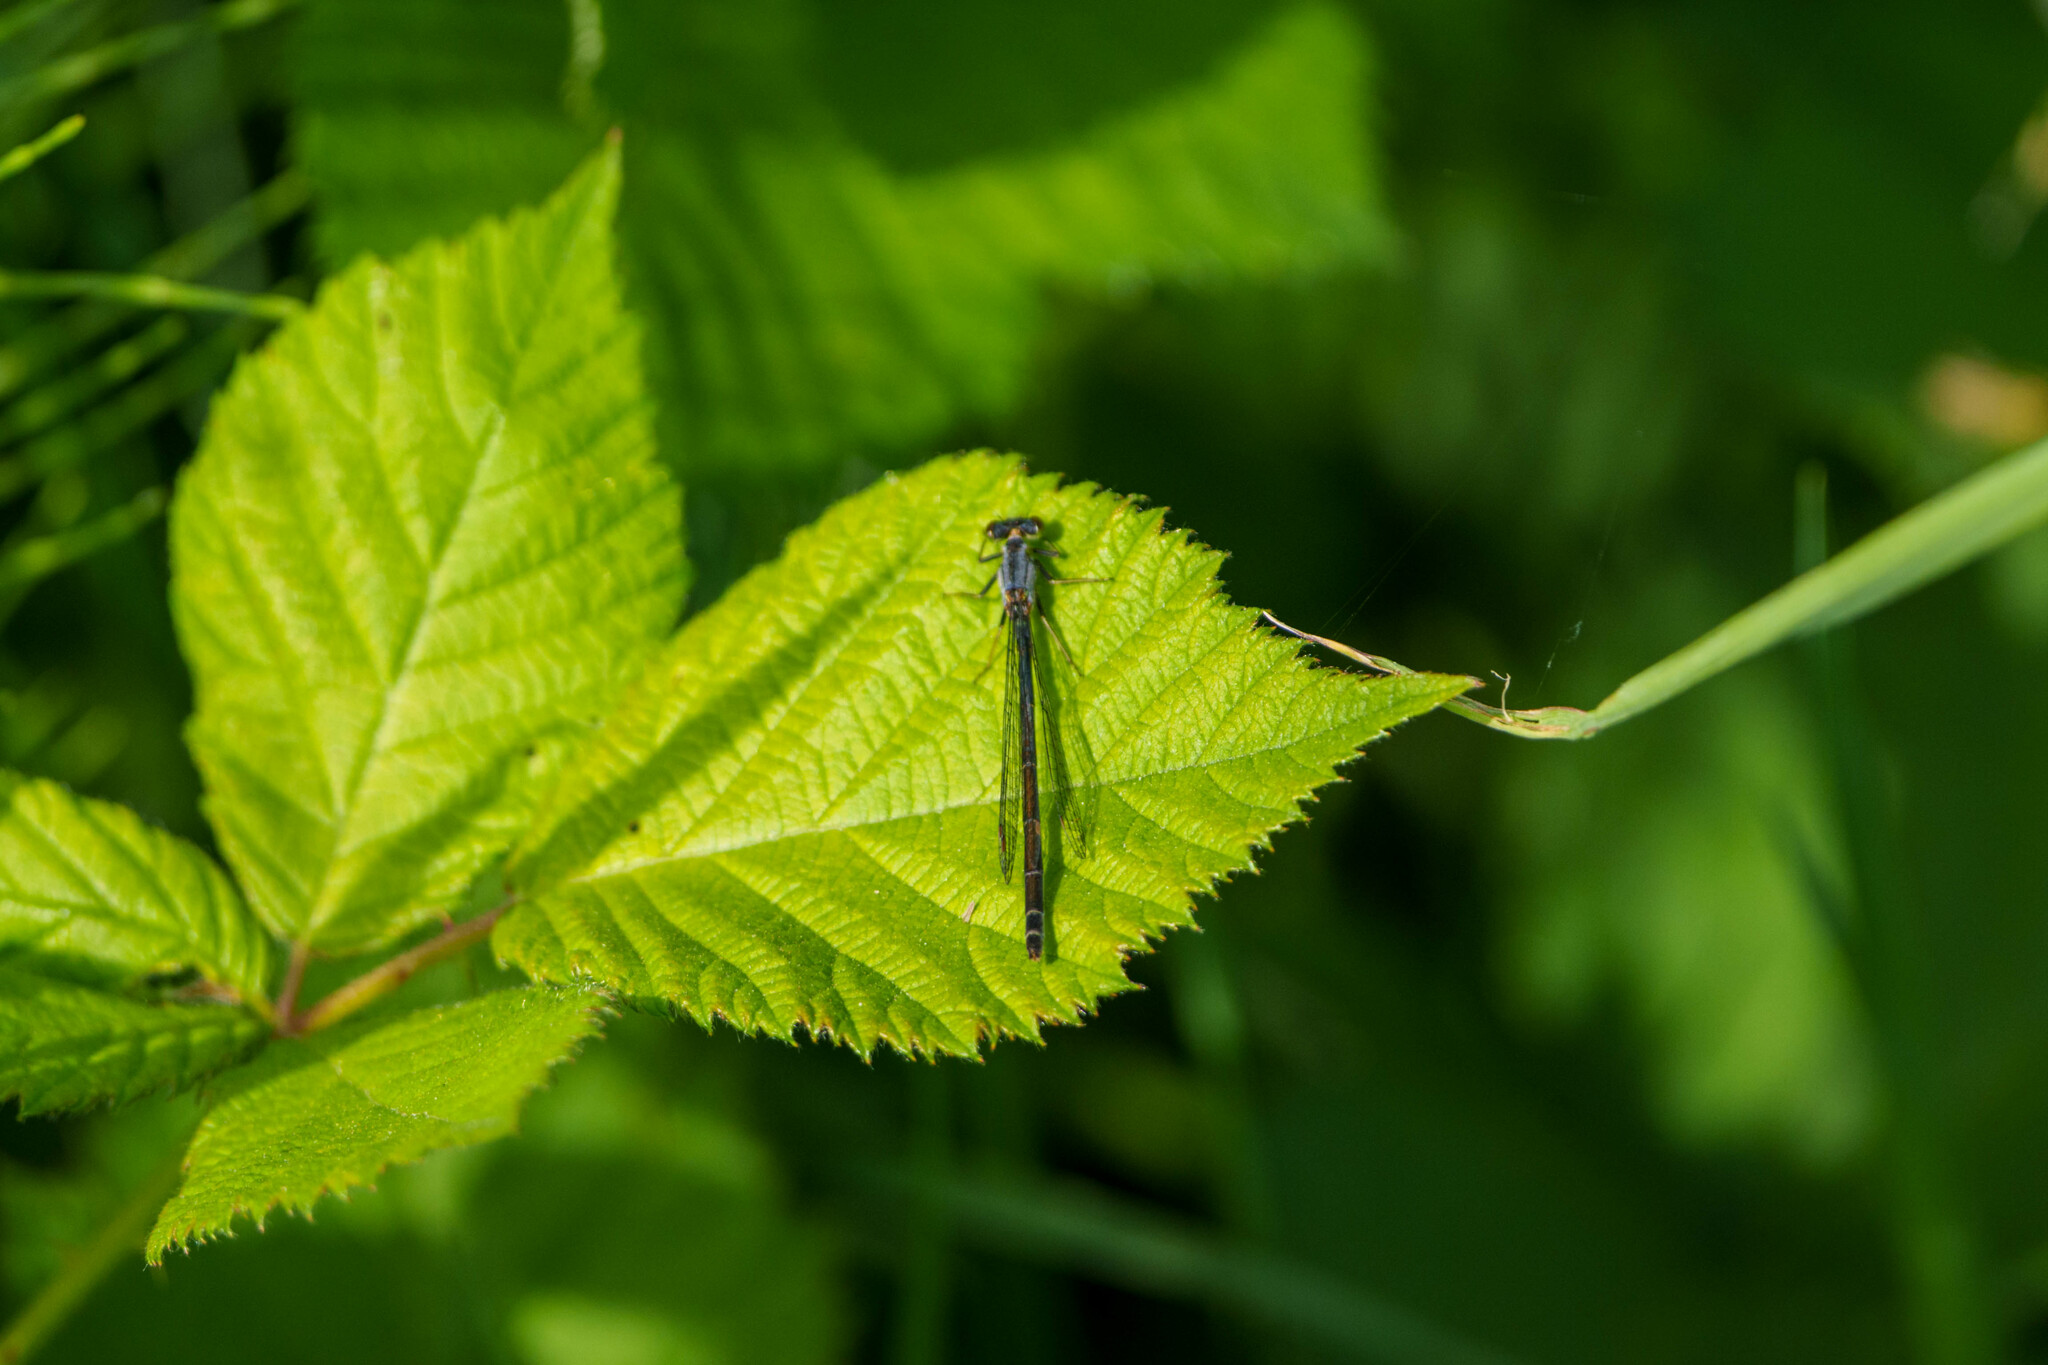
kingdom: Animalia
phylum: Arthropoda
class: Insecta
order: Odonata
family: Coenagrionidae
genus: Ischnura
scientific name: Ischnura cervula
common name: Pacific forktail
